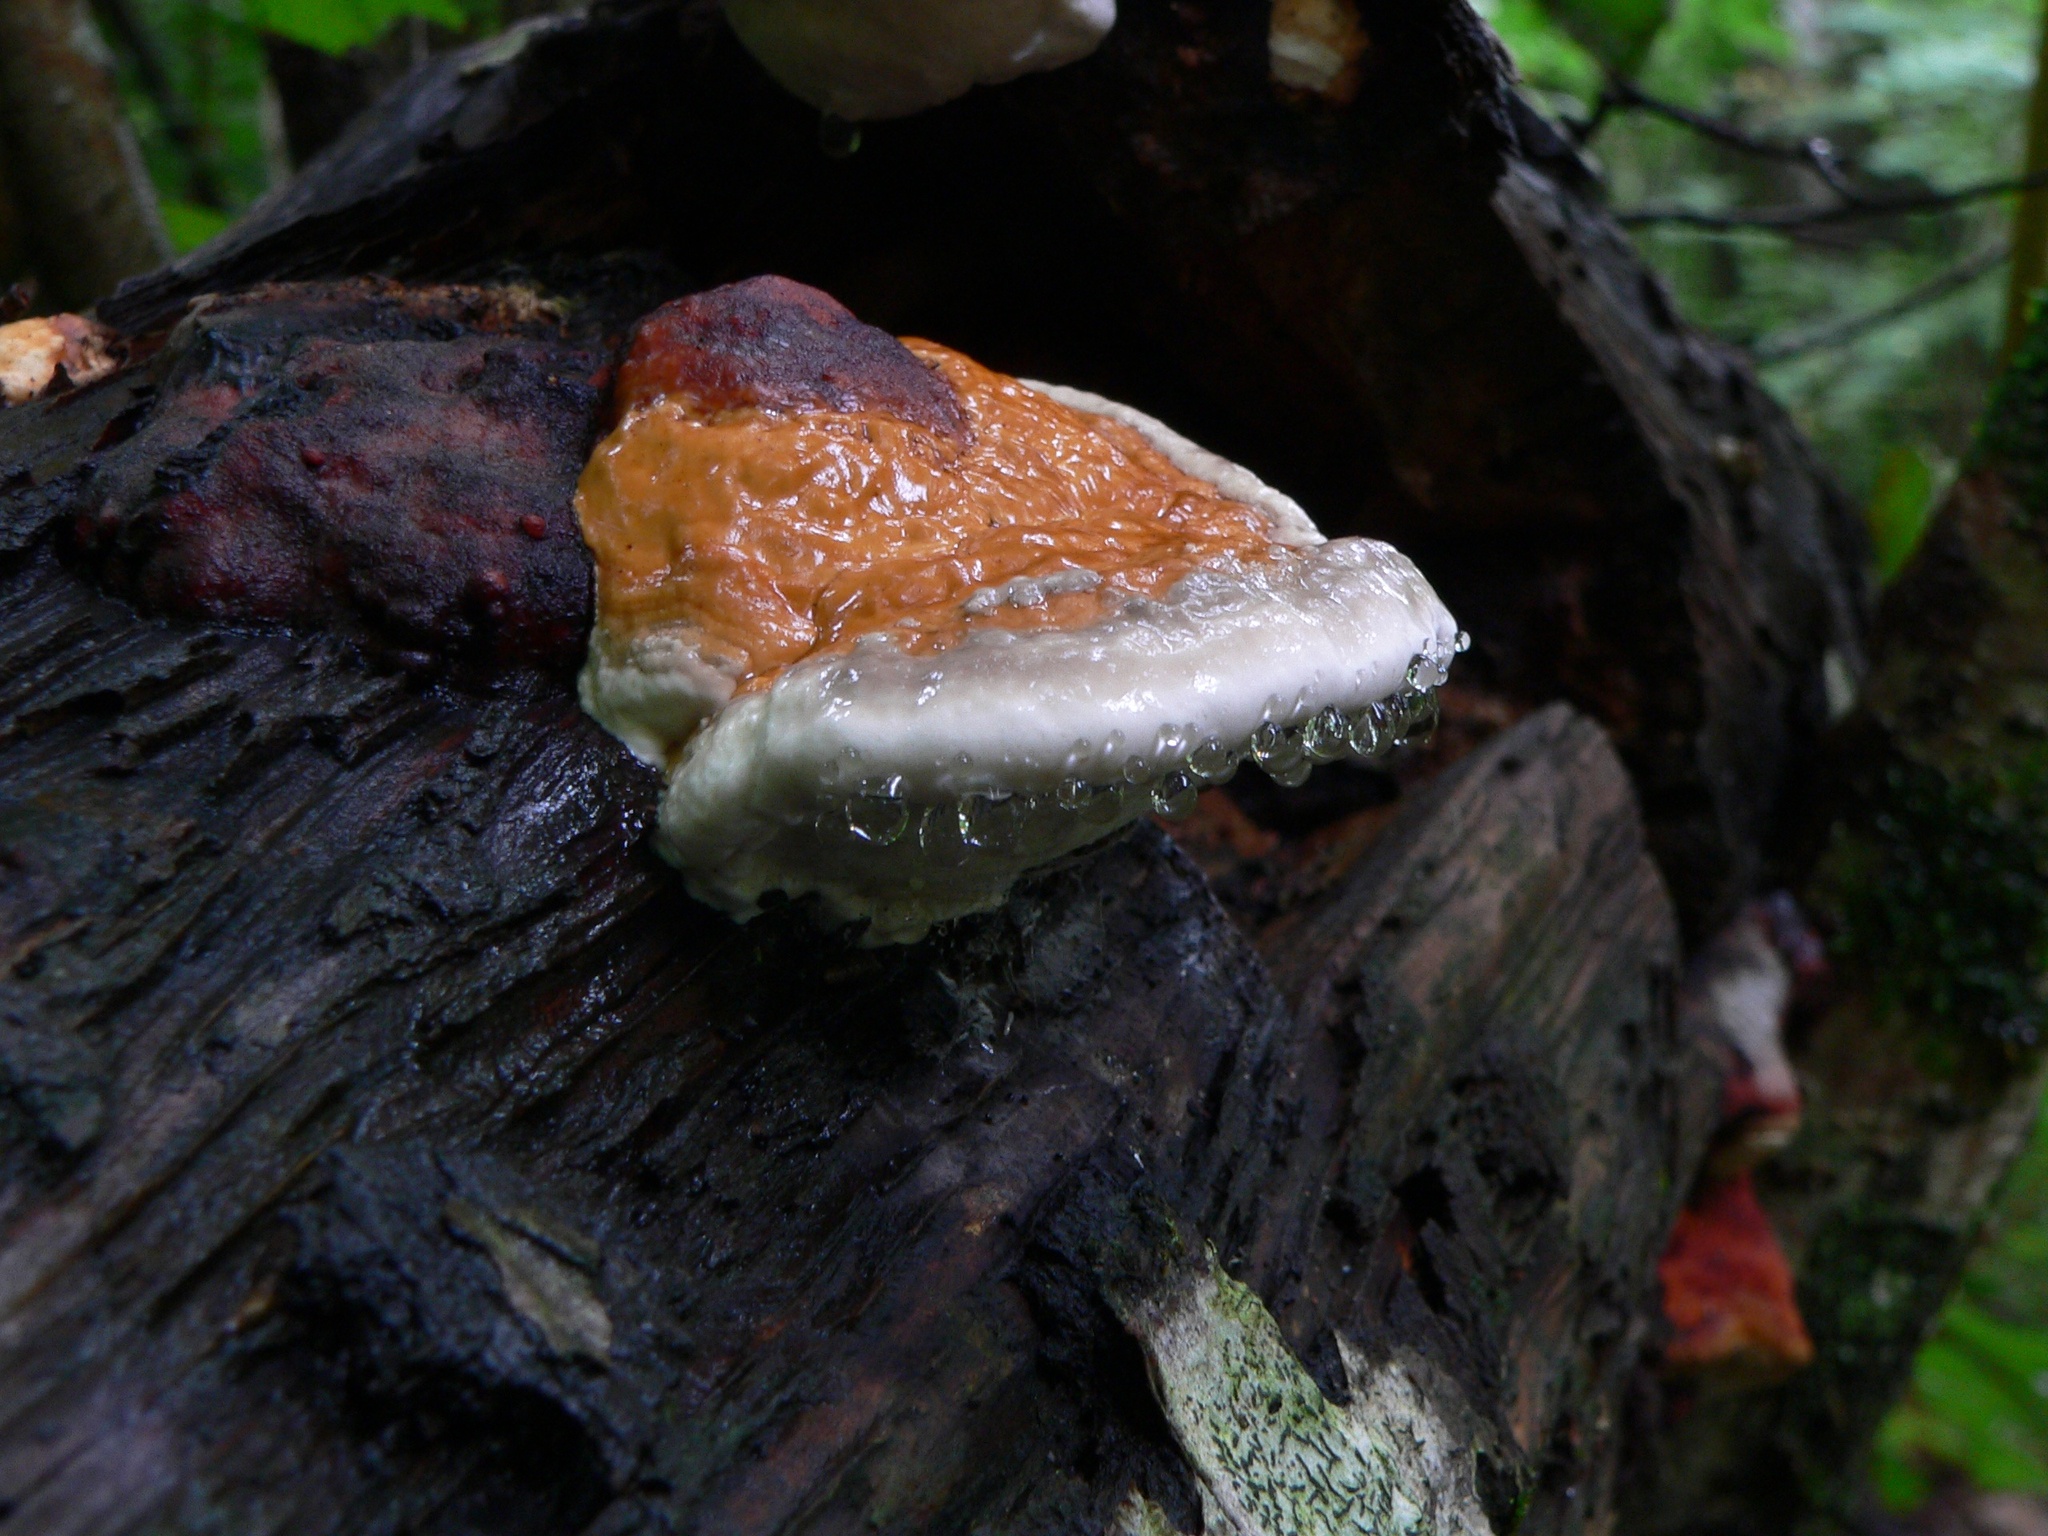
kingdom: Fungi
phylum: Basidiomycota
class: Agaricomycetes
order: Polyporales
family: Fomitopsidaceae
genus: Fomitopsis
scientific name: Fomitopsis pinicola
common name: Red-belted bracket
